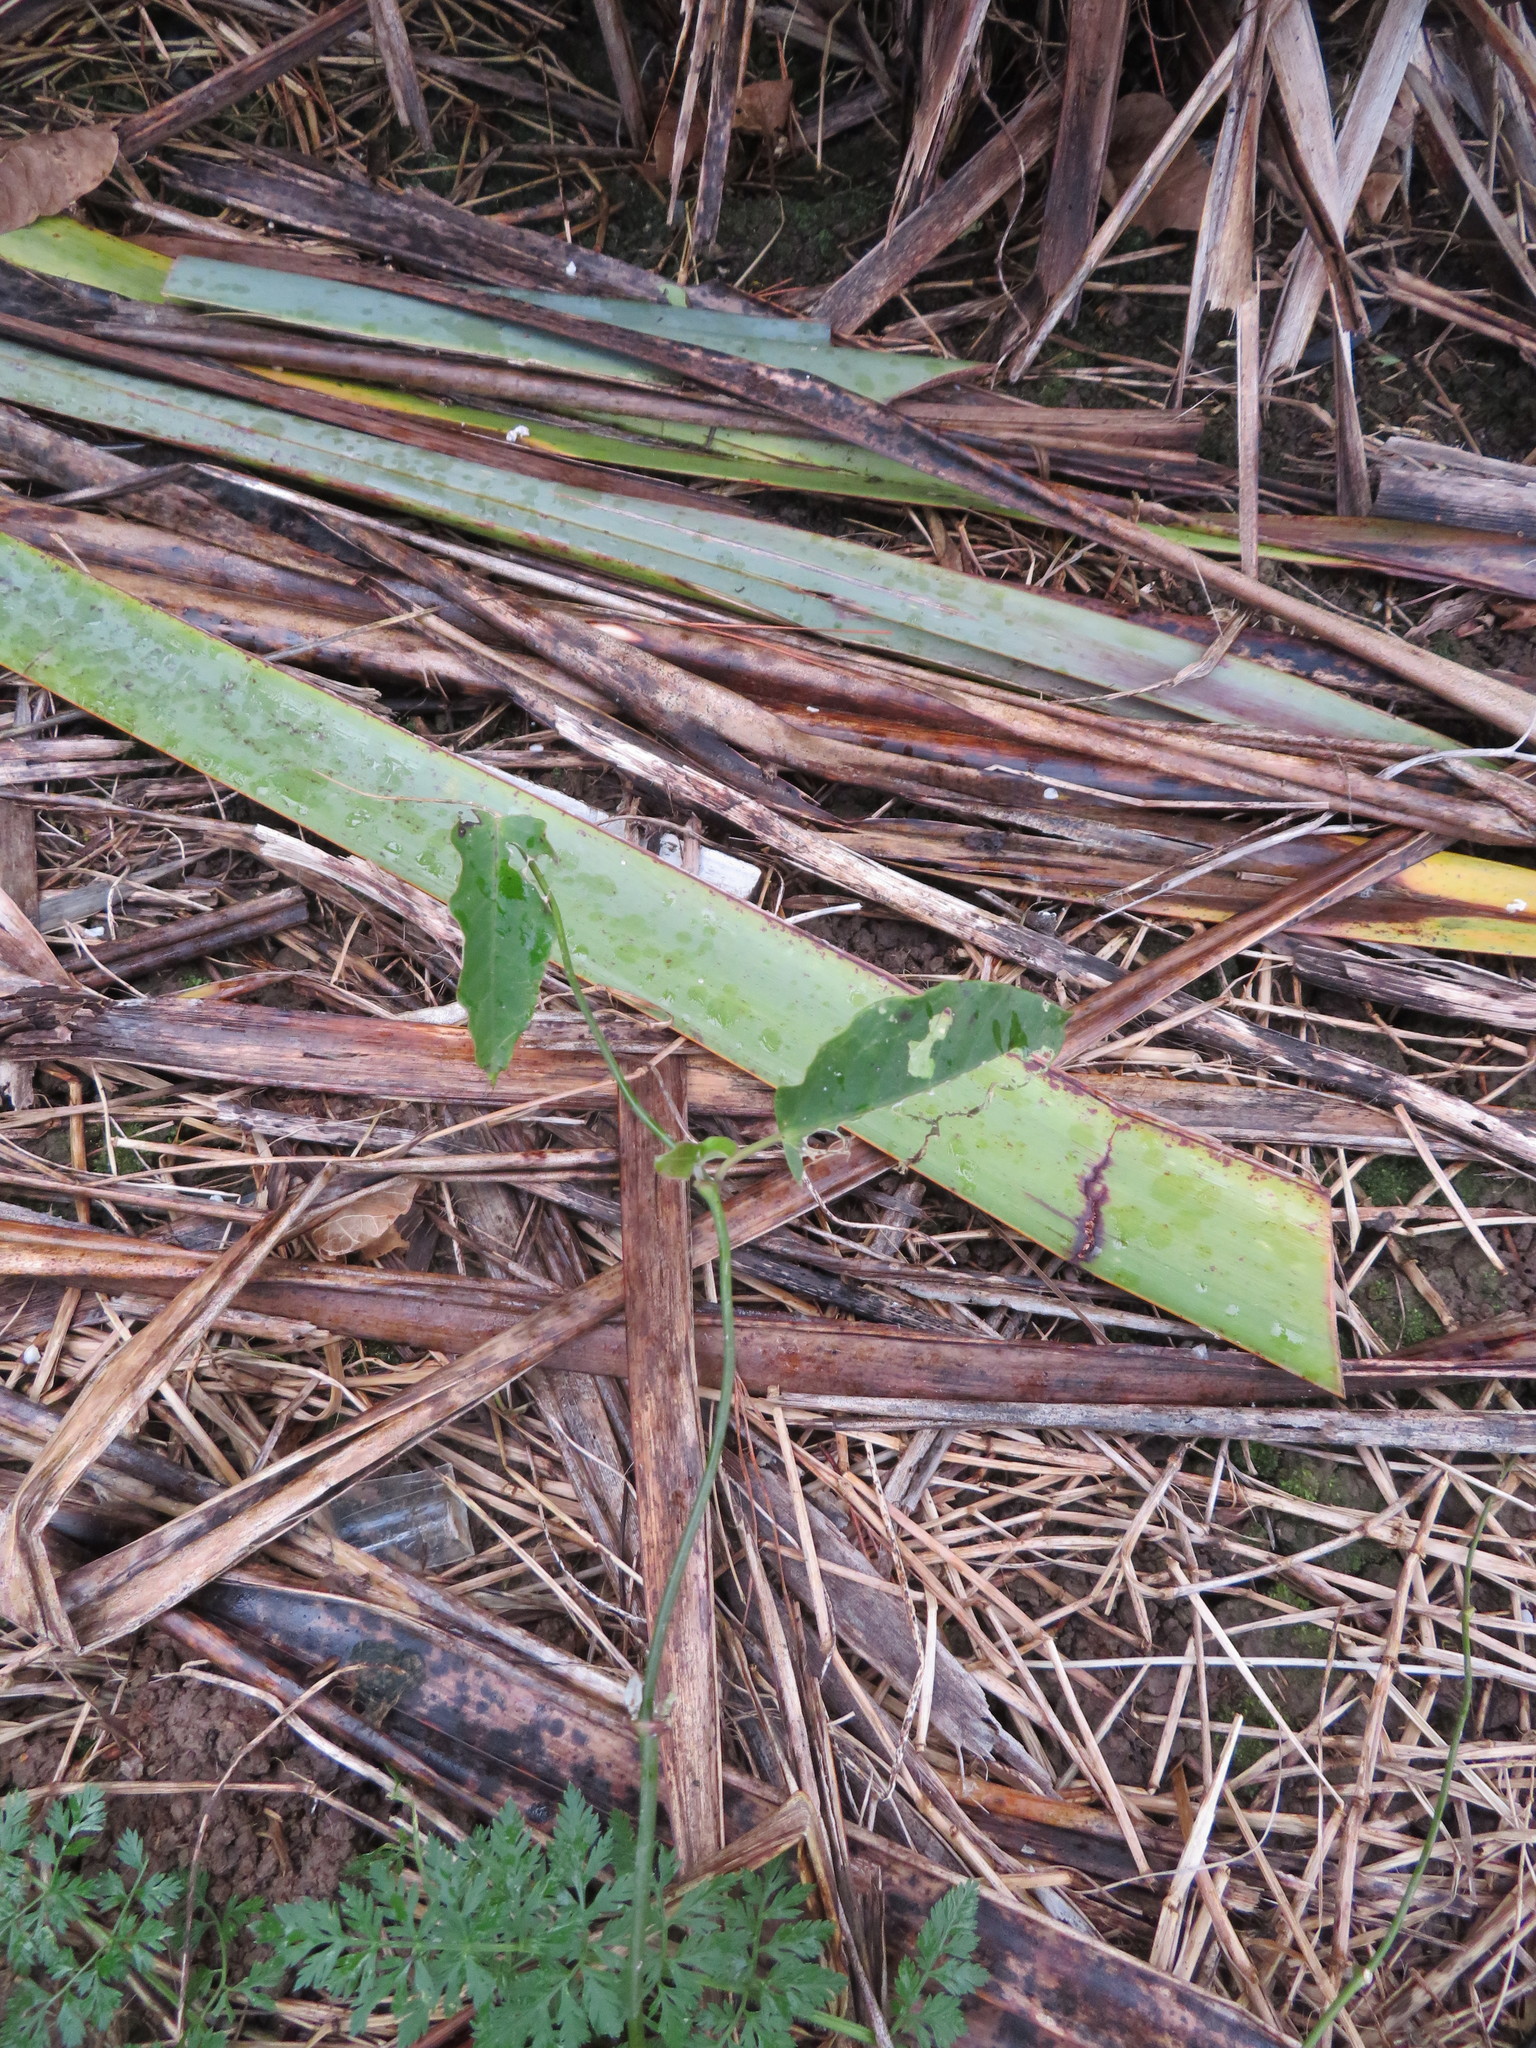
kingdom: Plantae
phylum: Tracheophyta
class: Magnoliopsida
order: Gentianales
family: Apocynaceae
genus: Araujia
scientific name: Araujia sericifera
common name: White bladderflower
